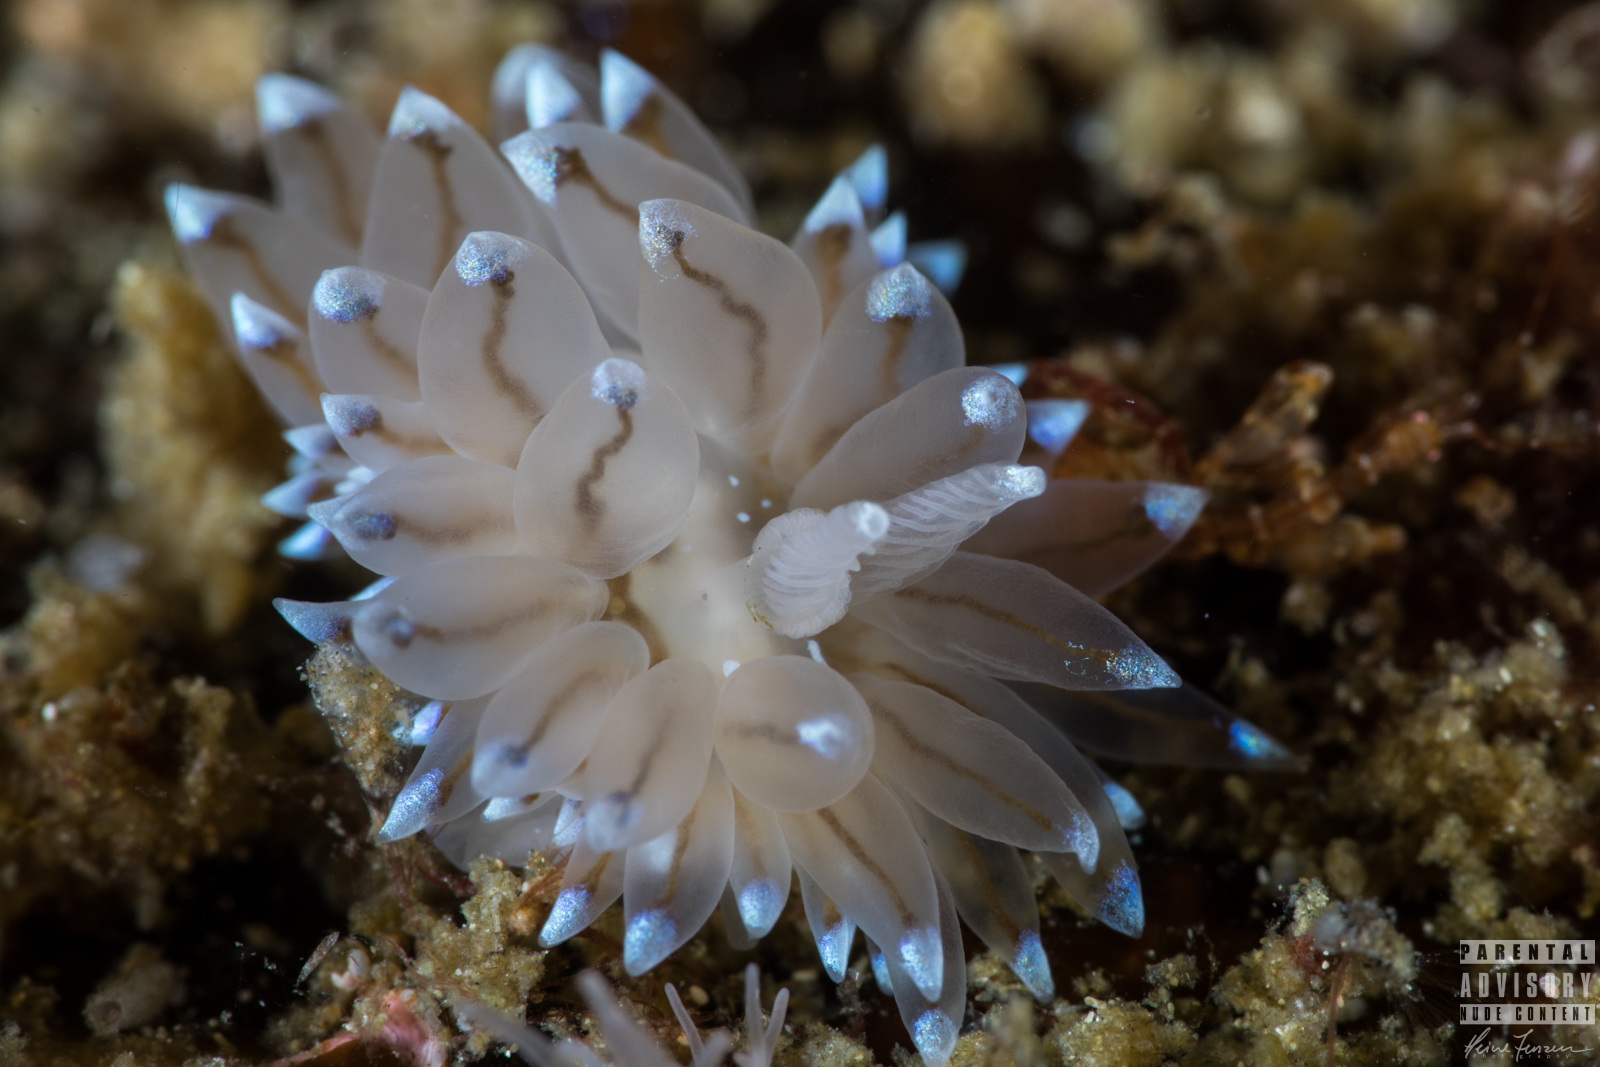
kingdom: Animalia
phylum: Mollusca
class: Gastropoda
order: Nudibranchia
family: Janolidae
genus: Antiopella
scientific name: Antiopella cristata
